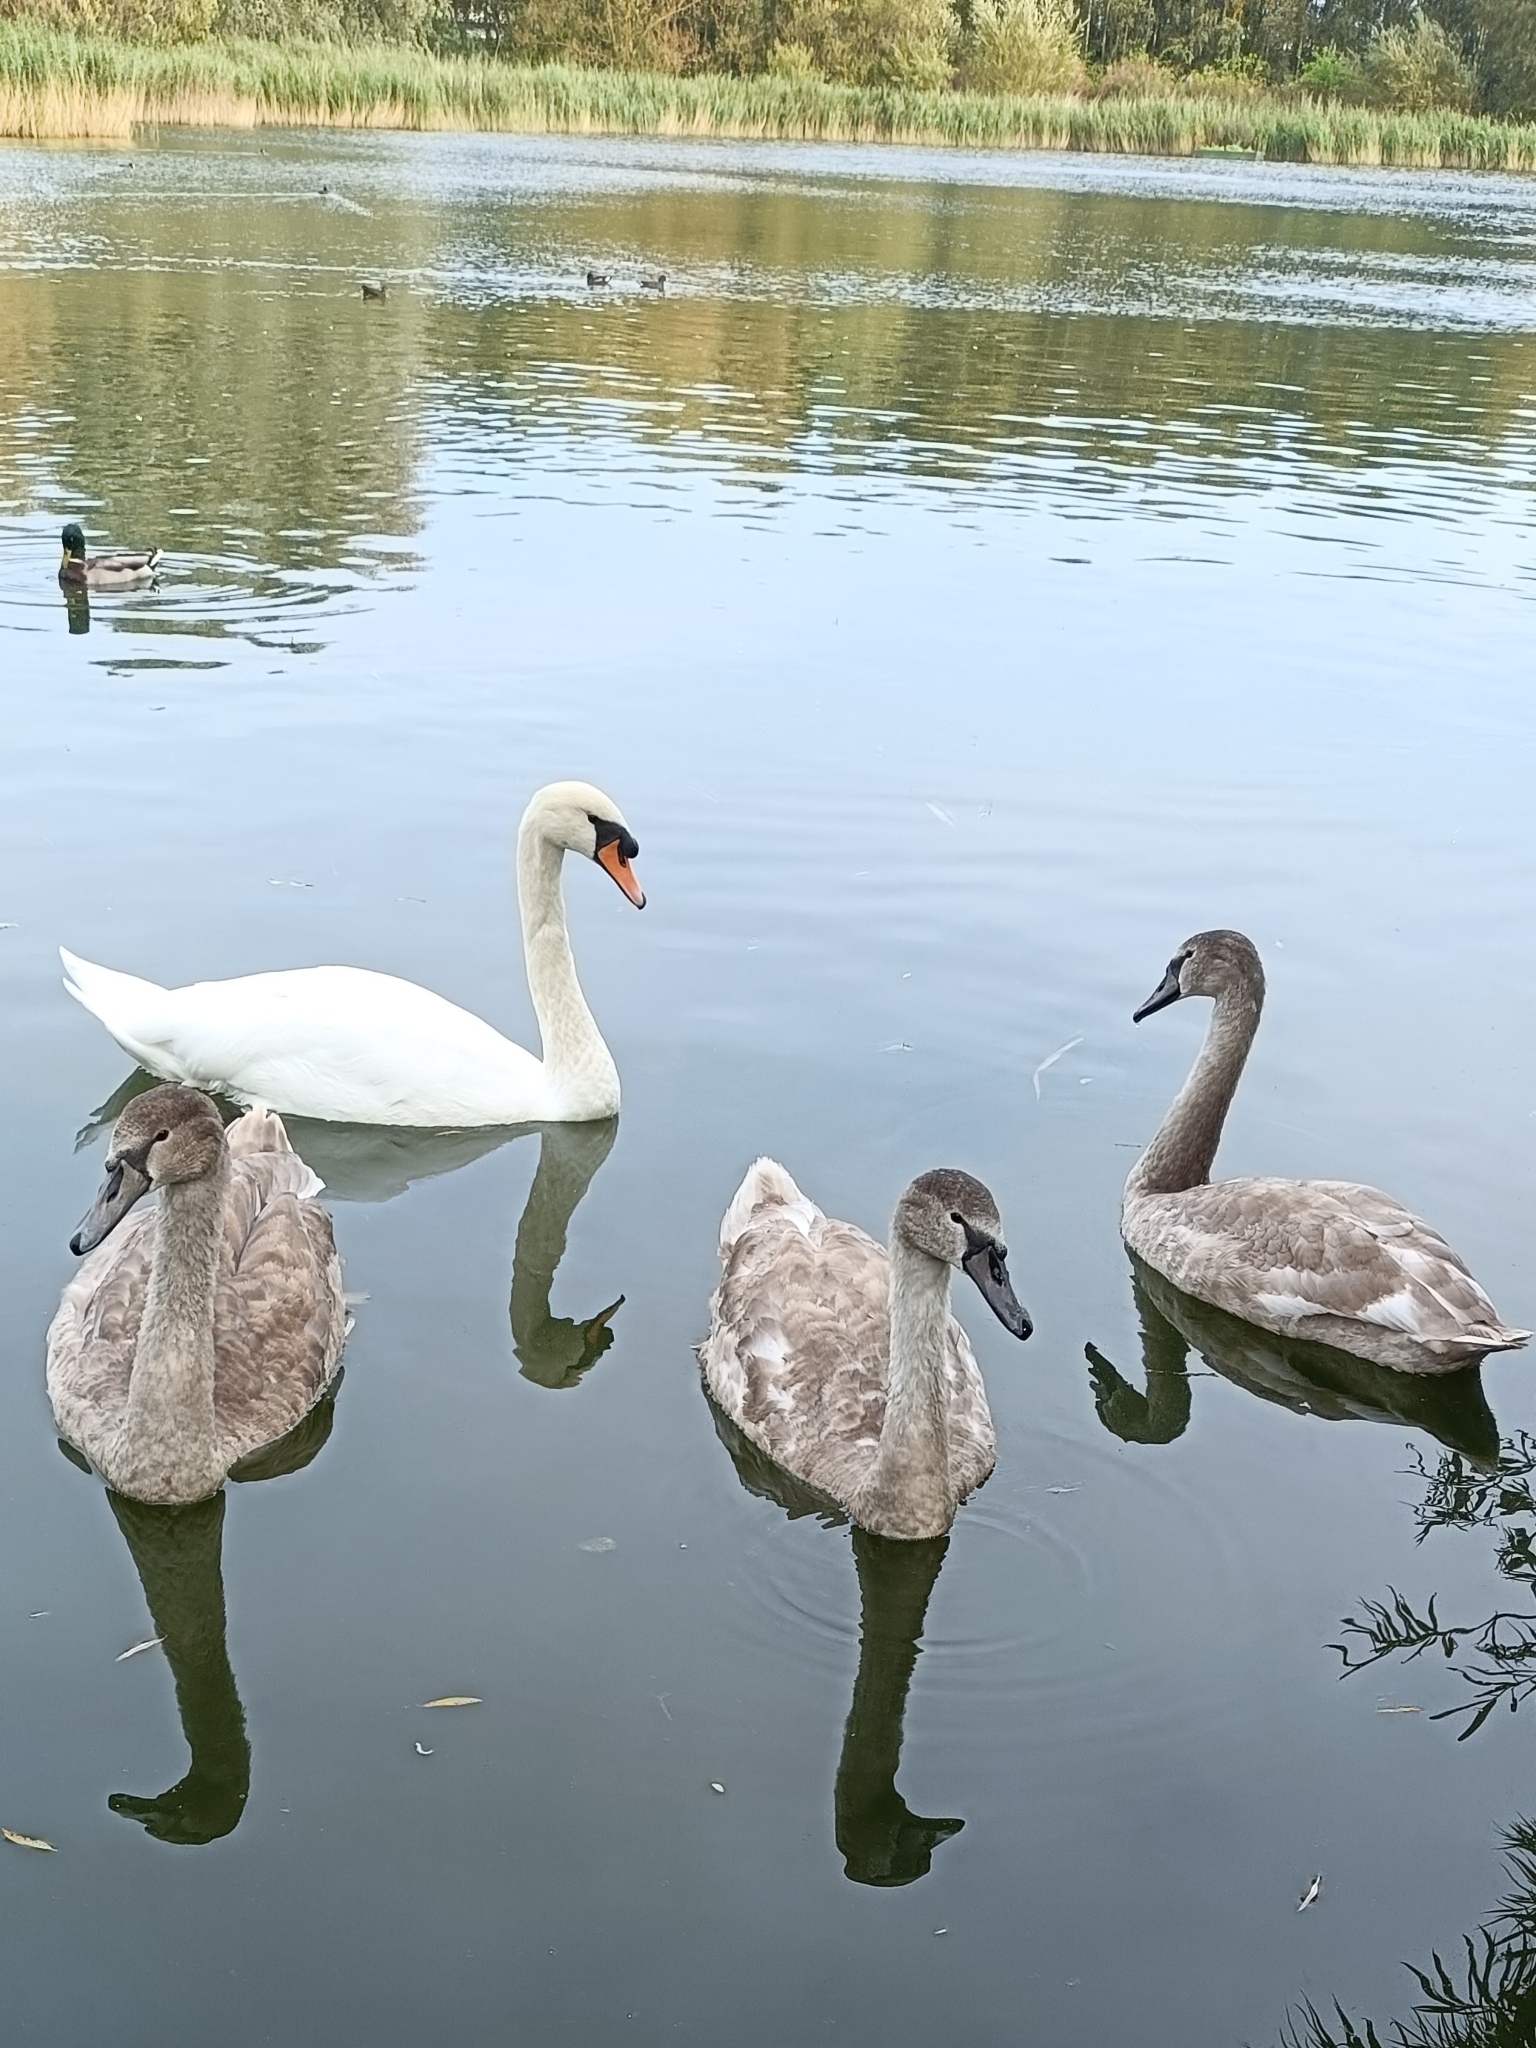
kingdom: Animalia
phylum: Chordata
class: Aves
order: Anseriformes
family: Anatidae
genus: Cygnus
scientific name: Cygnus olor
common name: Mute swan
